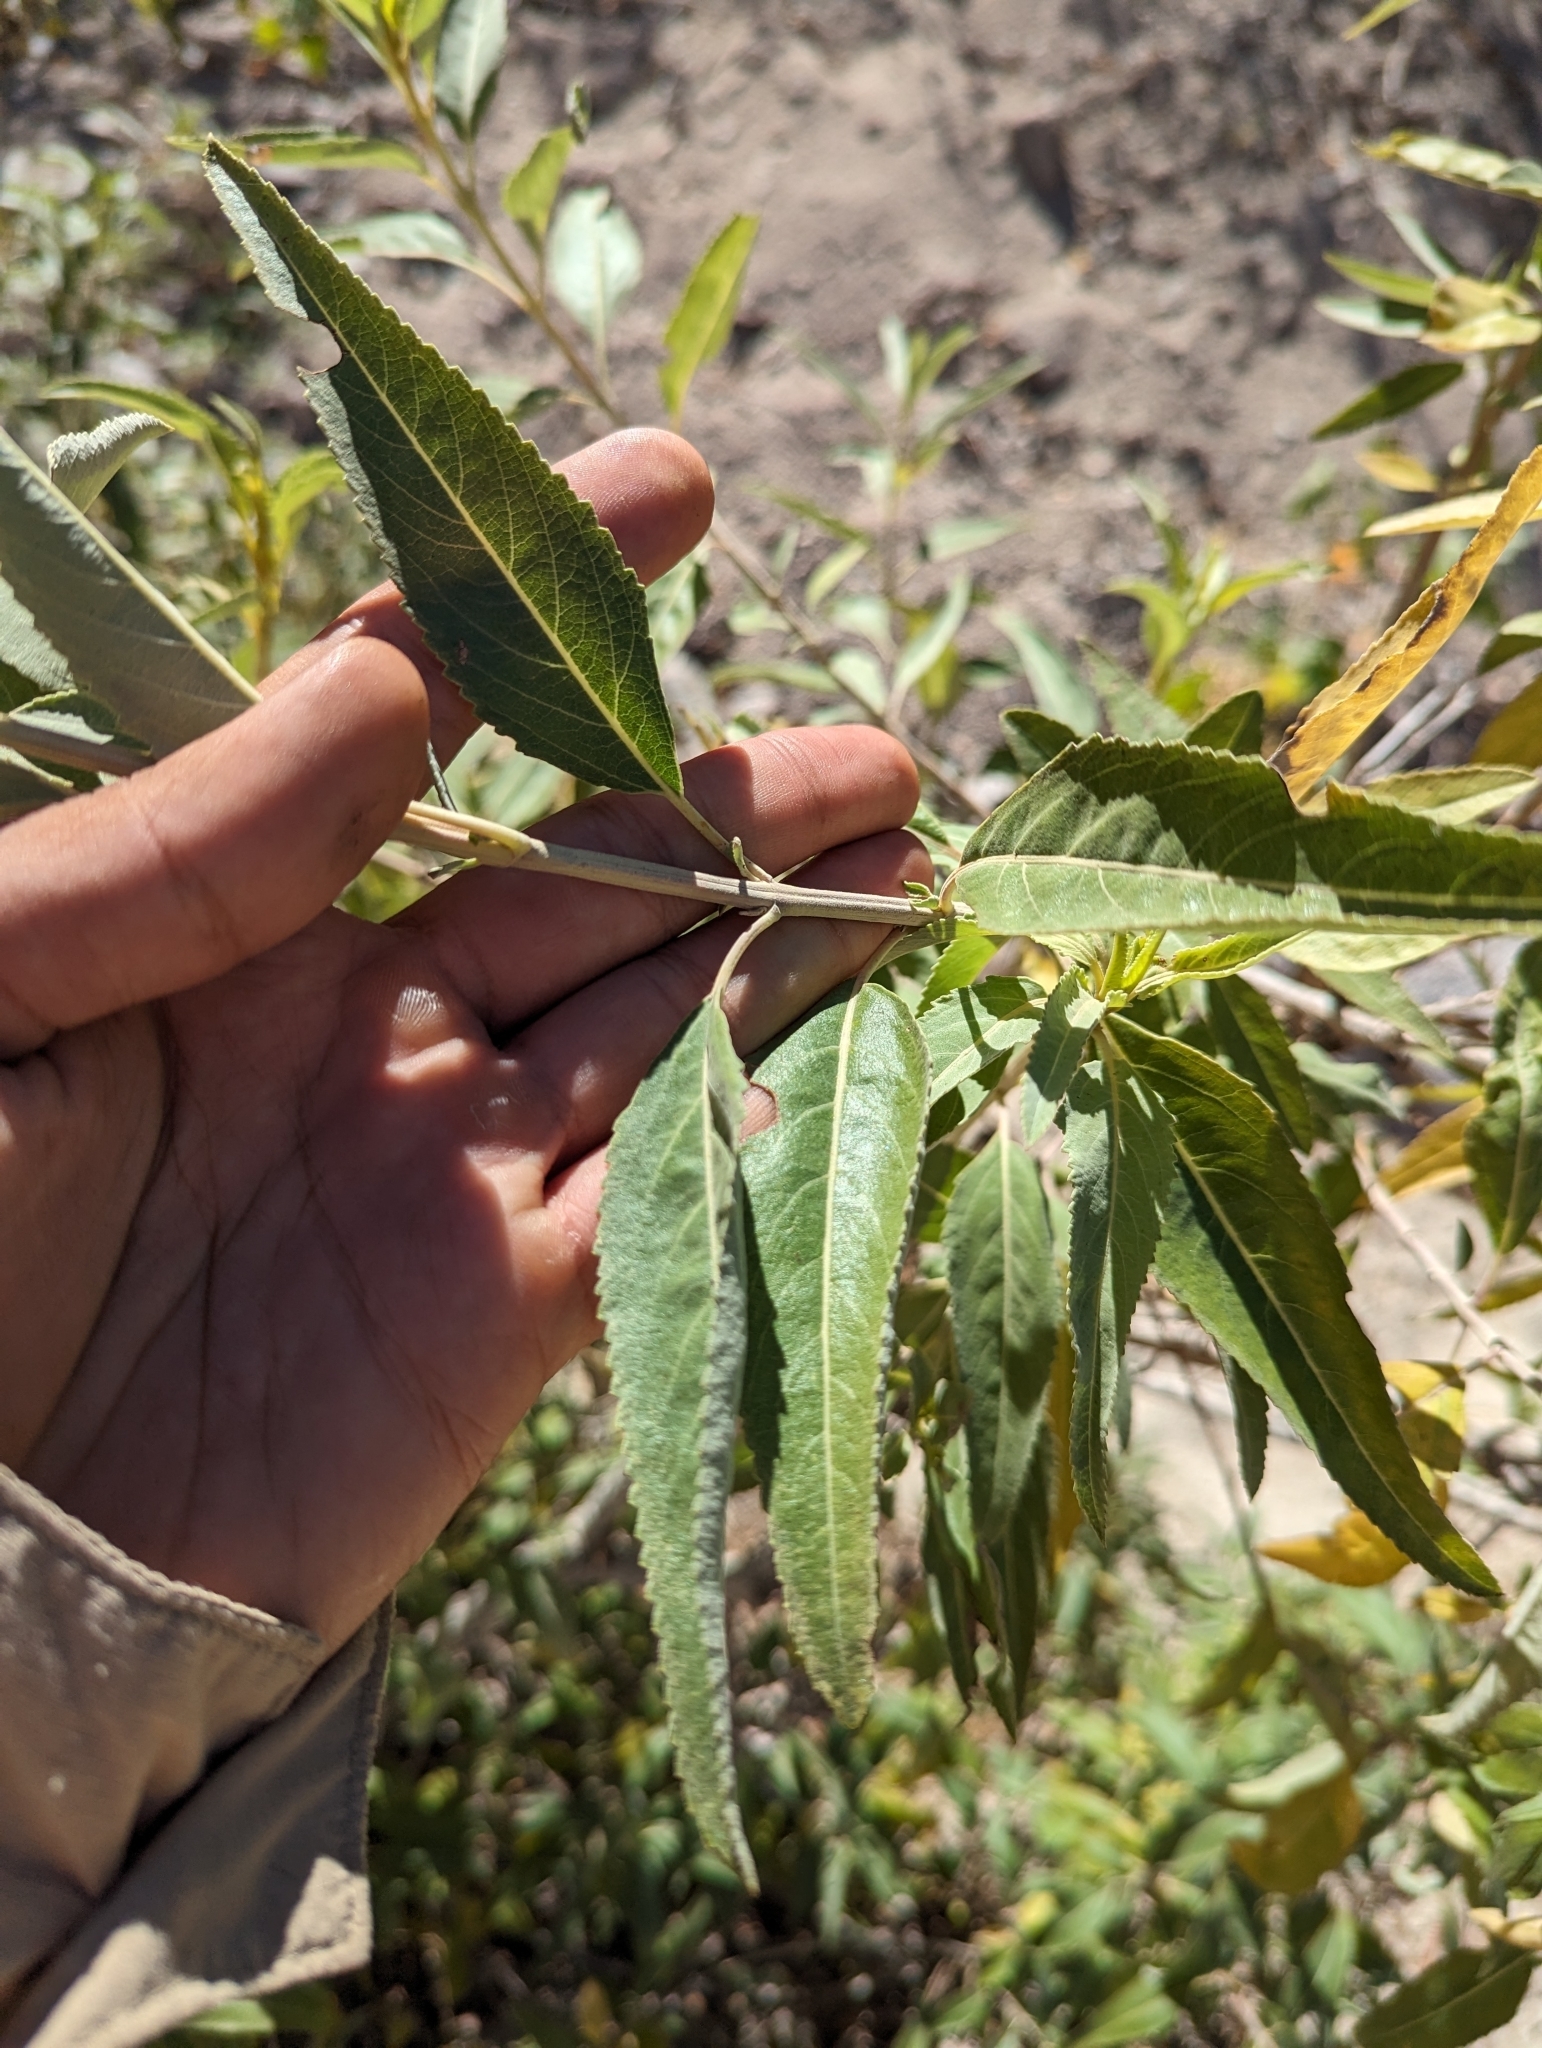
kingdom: Plantae
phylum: Tracheophyta
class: Magnoliopsida
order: Lamiales
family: Lamiaceae
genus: Condea
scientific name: Condea tephrodes
